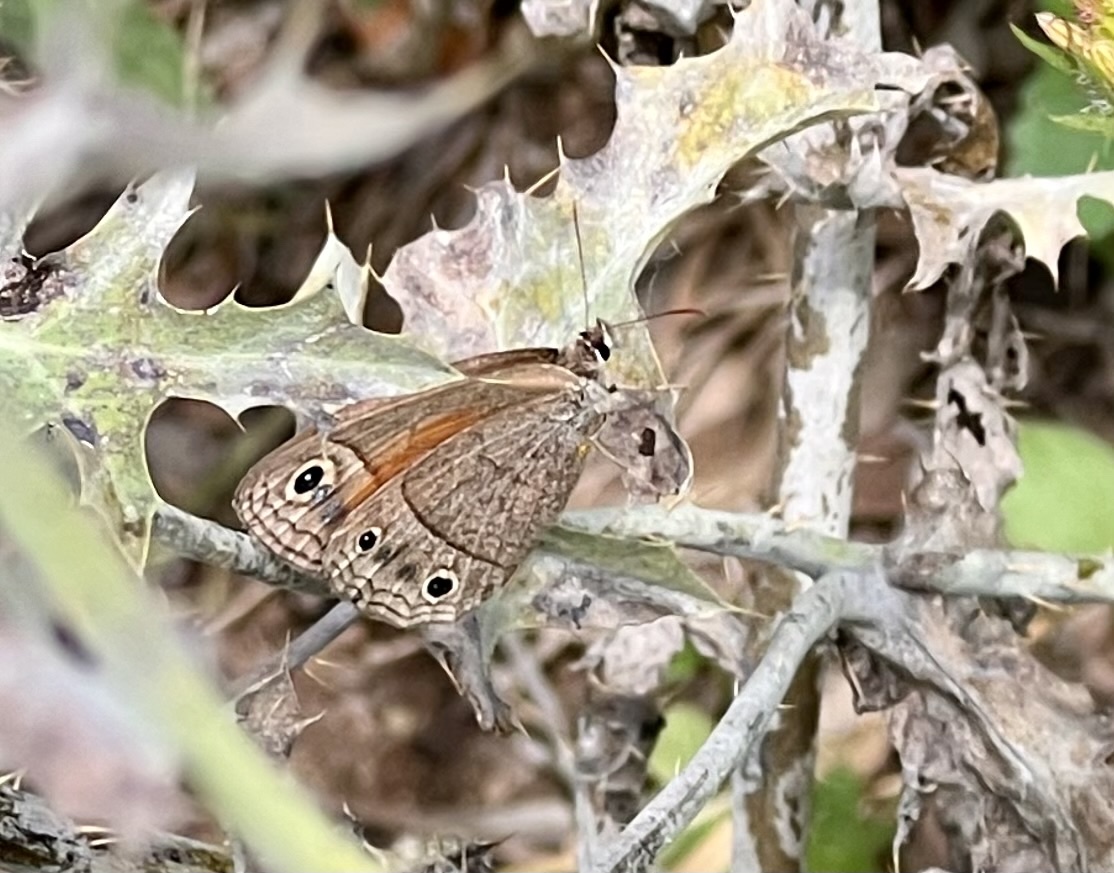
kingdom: Animalia
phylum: Arthropoda
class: Insecta
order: Lepidoptera
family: Nymphalidae
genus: Euptychia
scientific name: Euptychia Cissia rubricata
